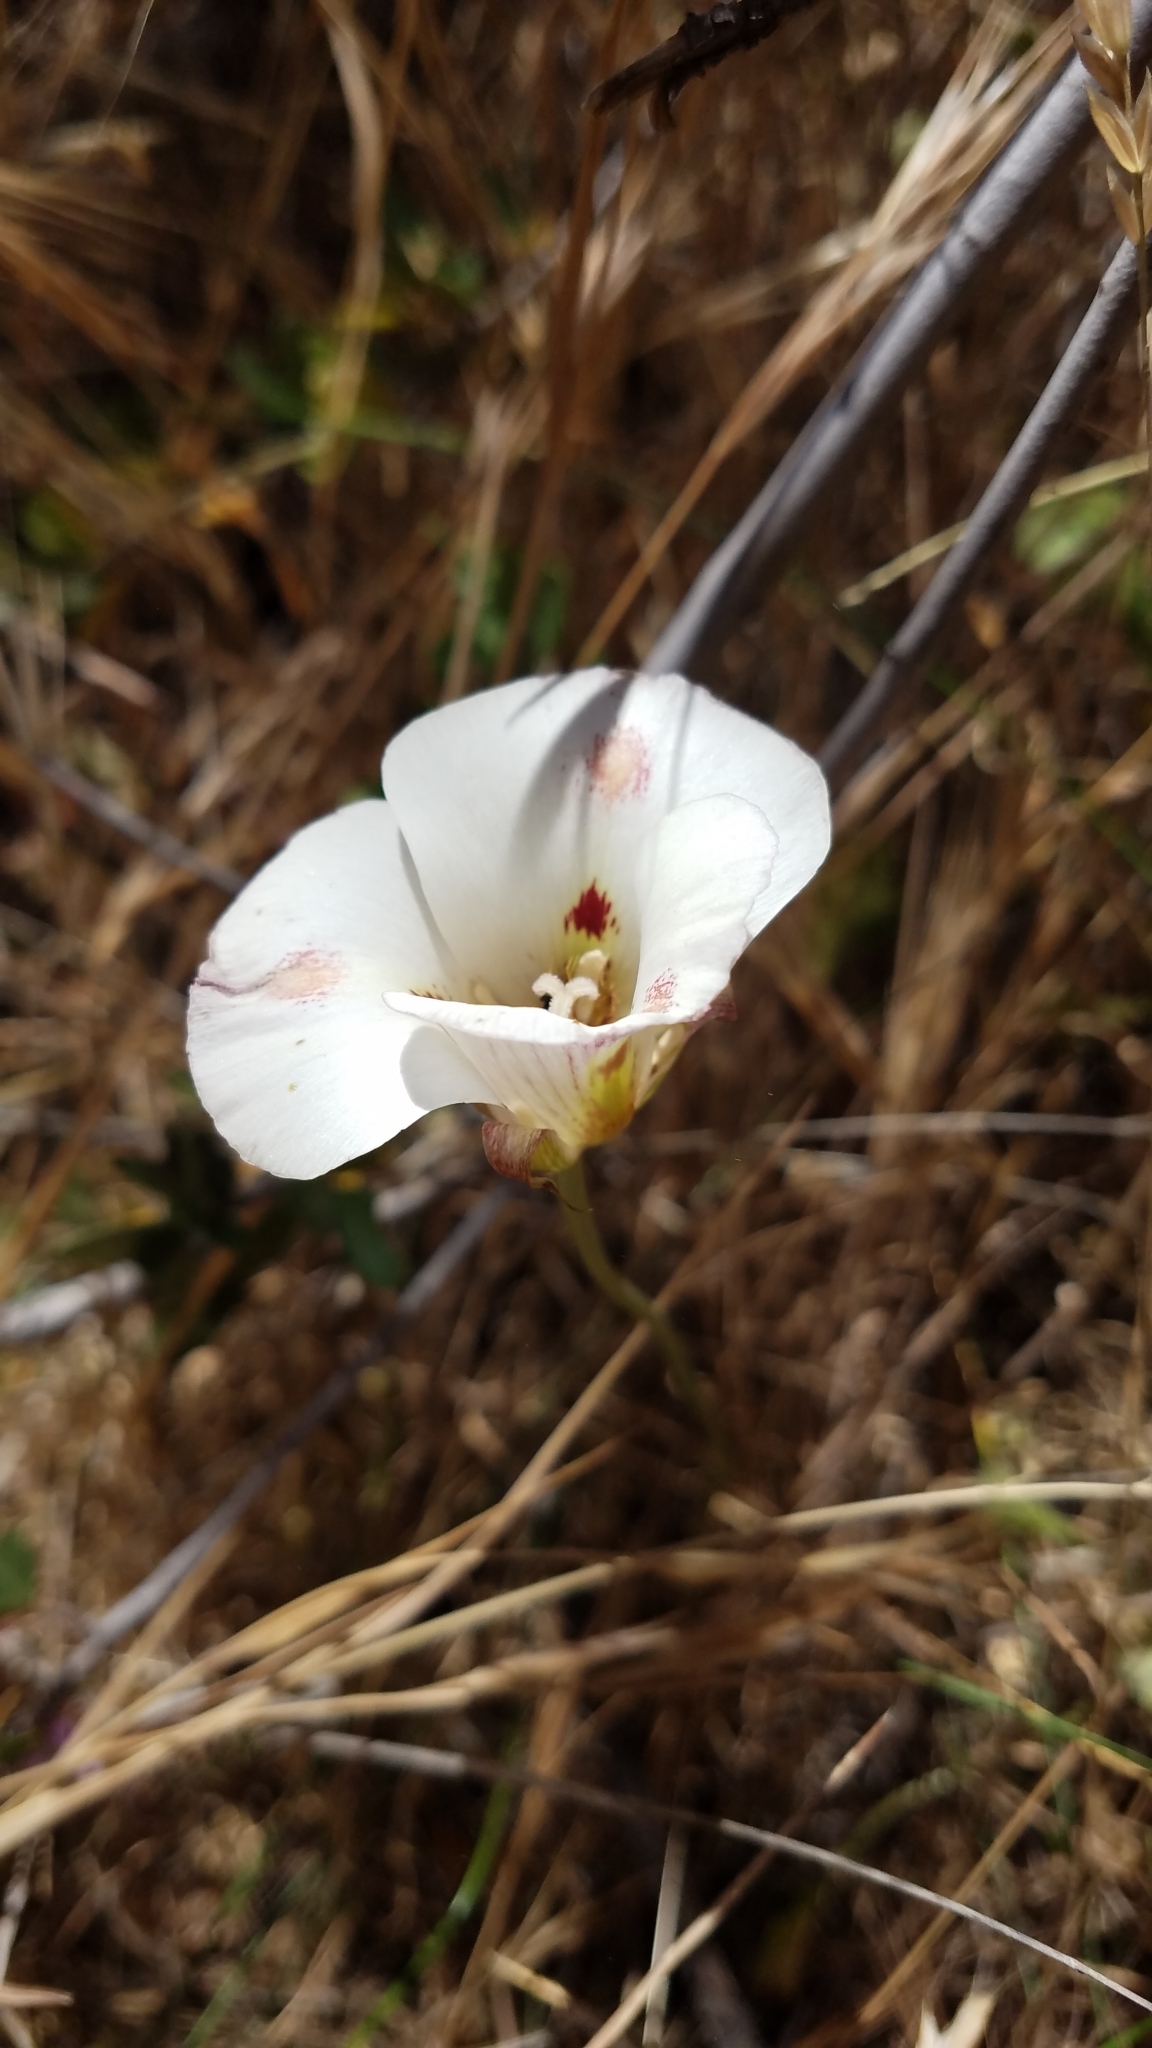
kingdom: Plantae
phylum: Tracheophyta
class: Liliopsida
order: Liliales
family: Liliaceae
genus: Calochortus
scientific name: Calochortus venustus
